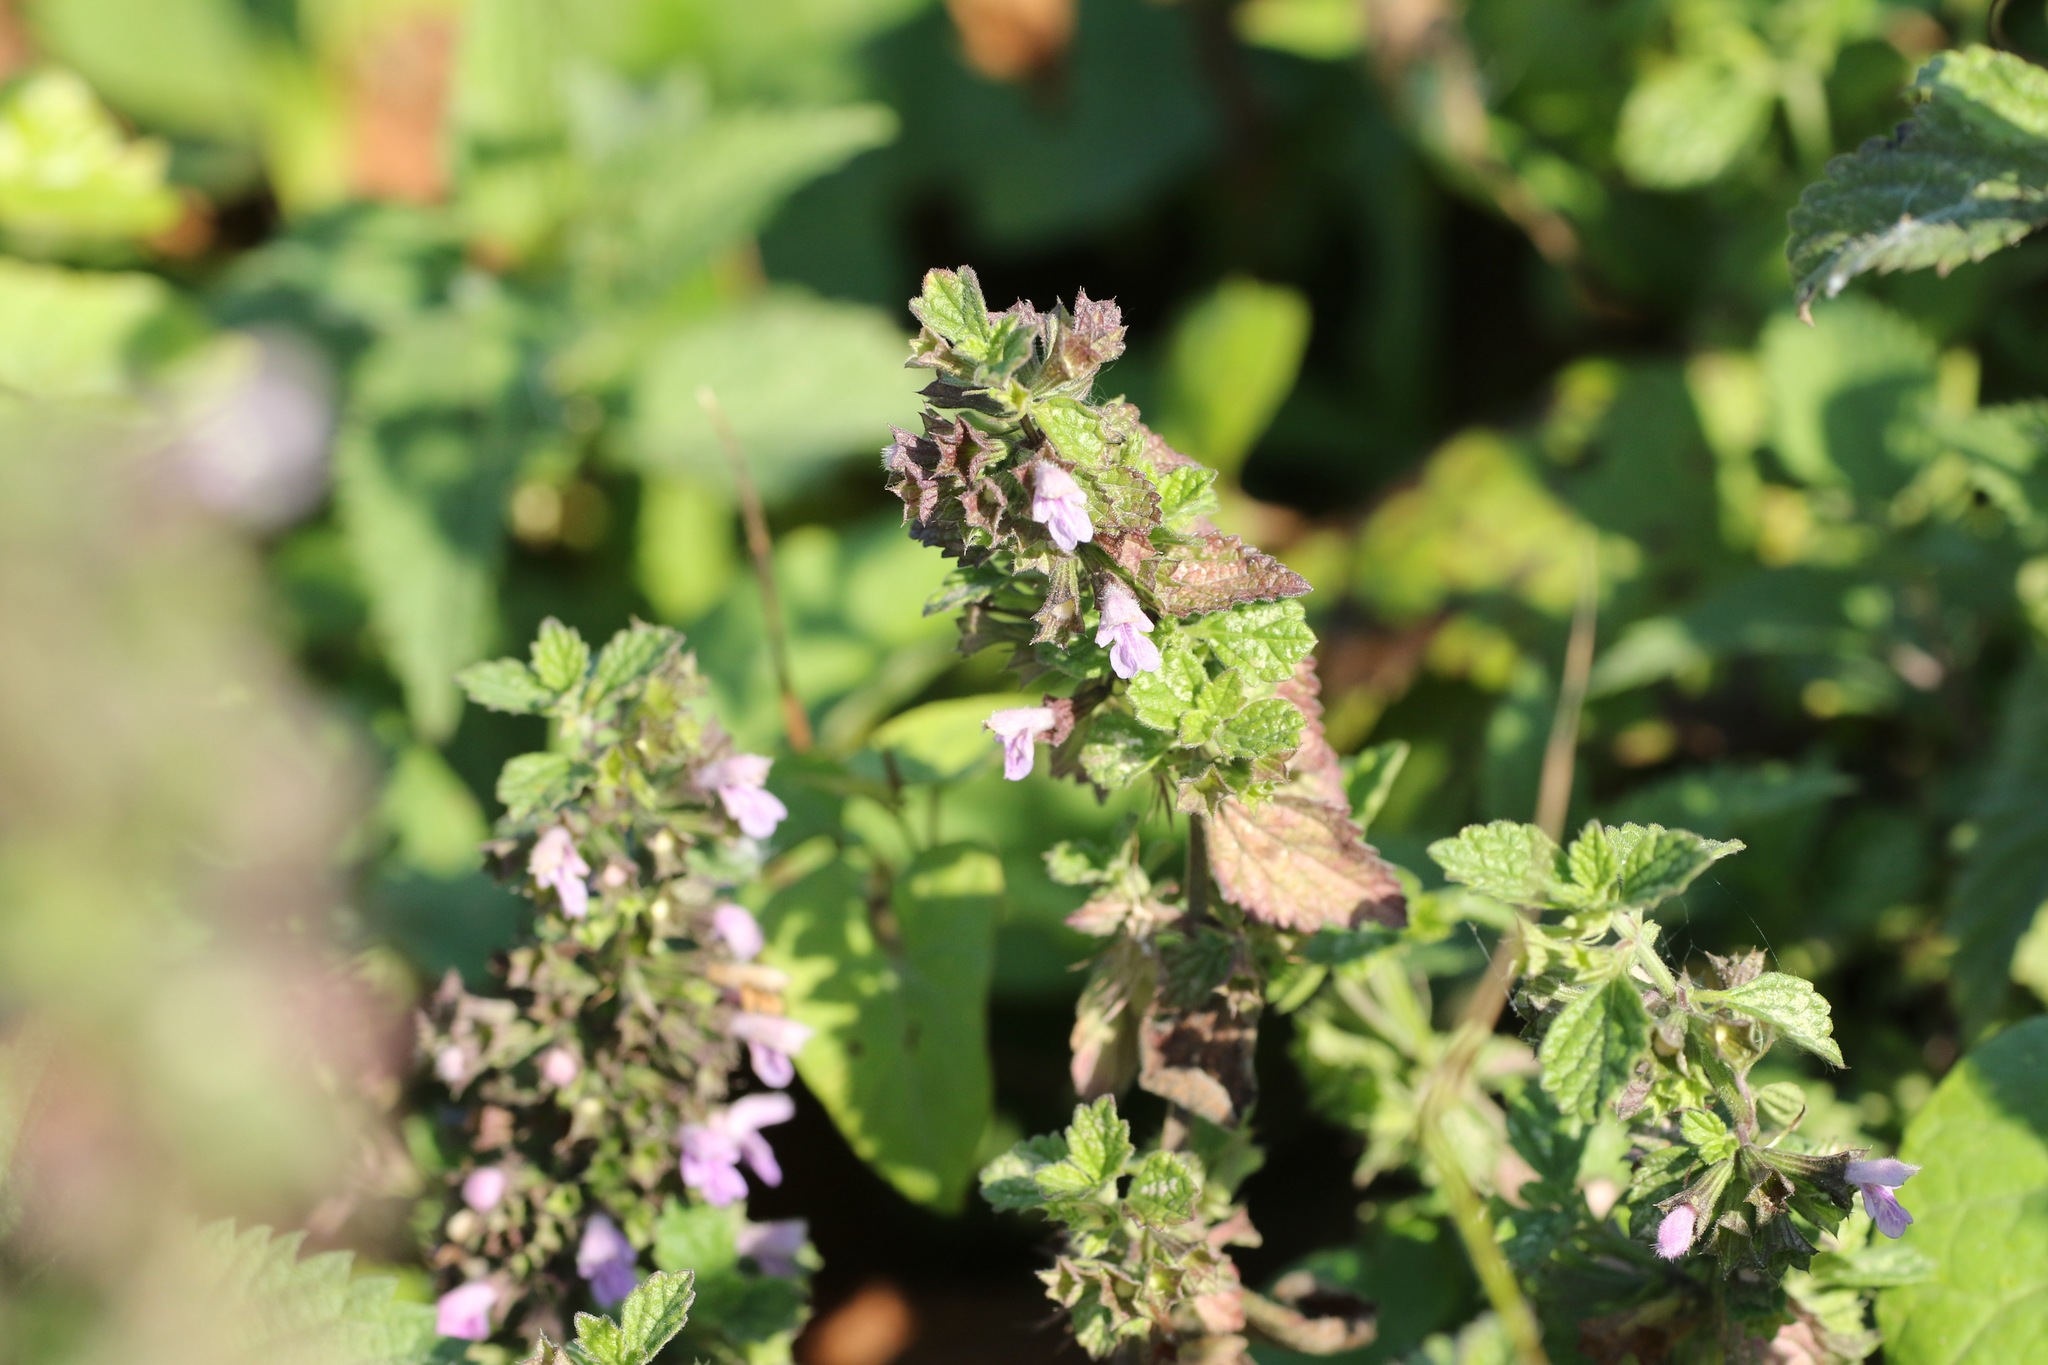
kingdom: Plantae
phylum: Tracheophyta
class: Magnoliopsida
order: Lamiales
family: Lamiaceae
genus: Ballota
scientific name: Ballota nigra
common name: Black horehound
